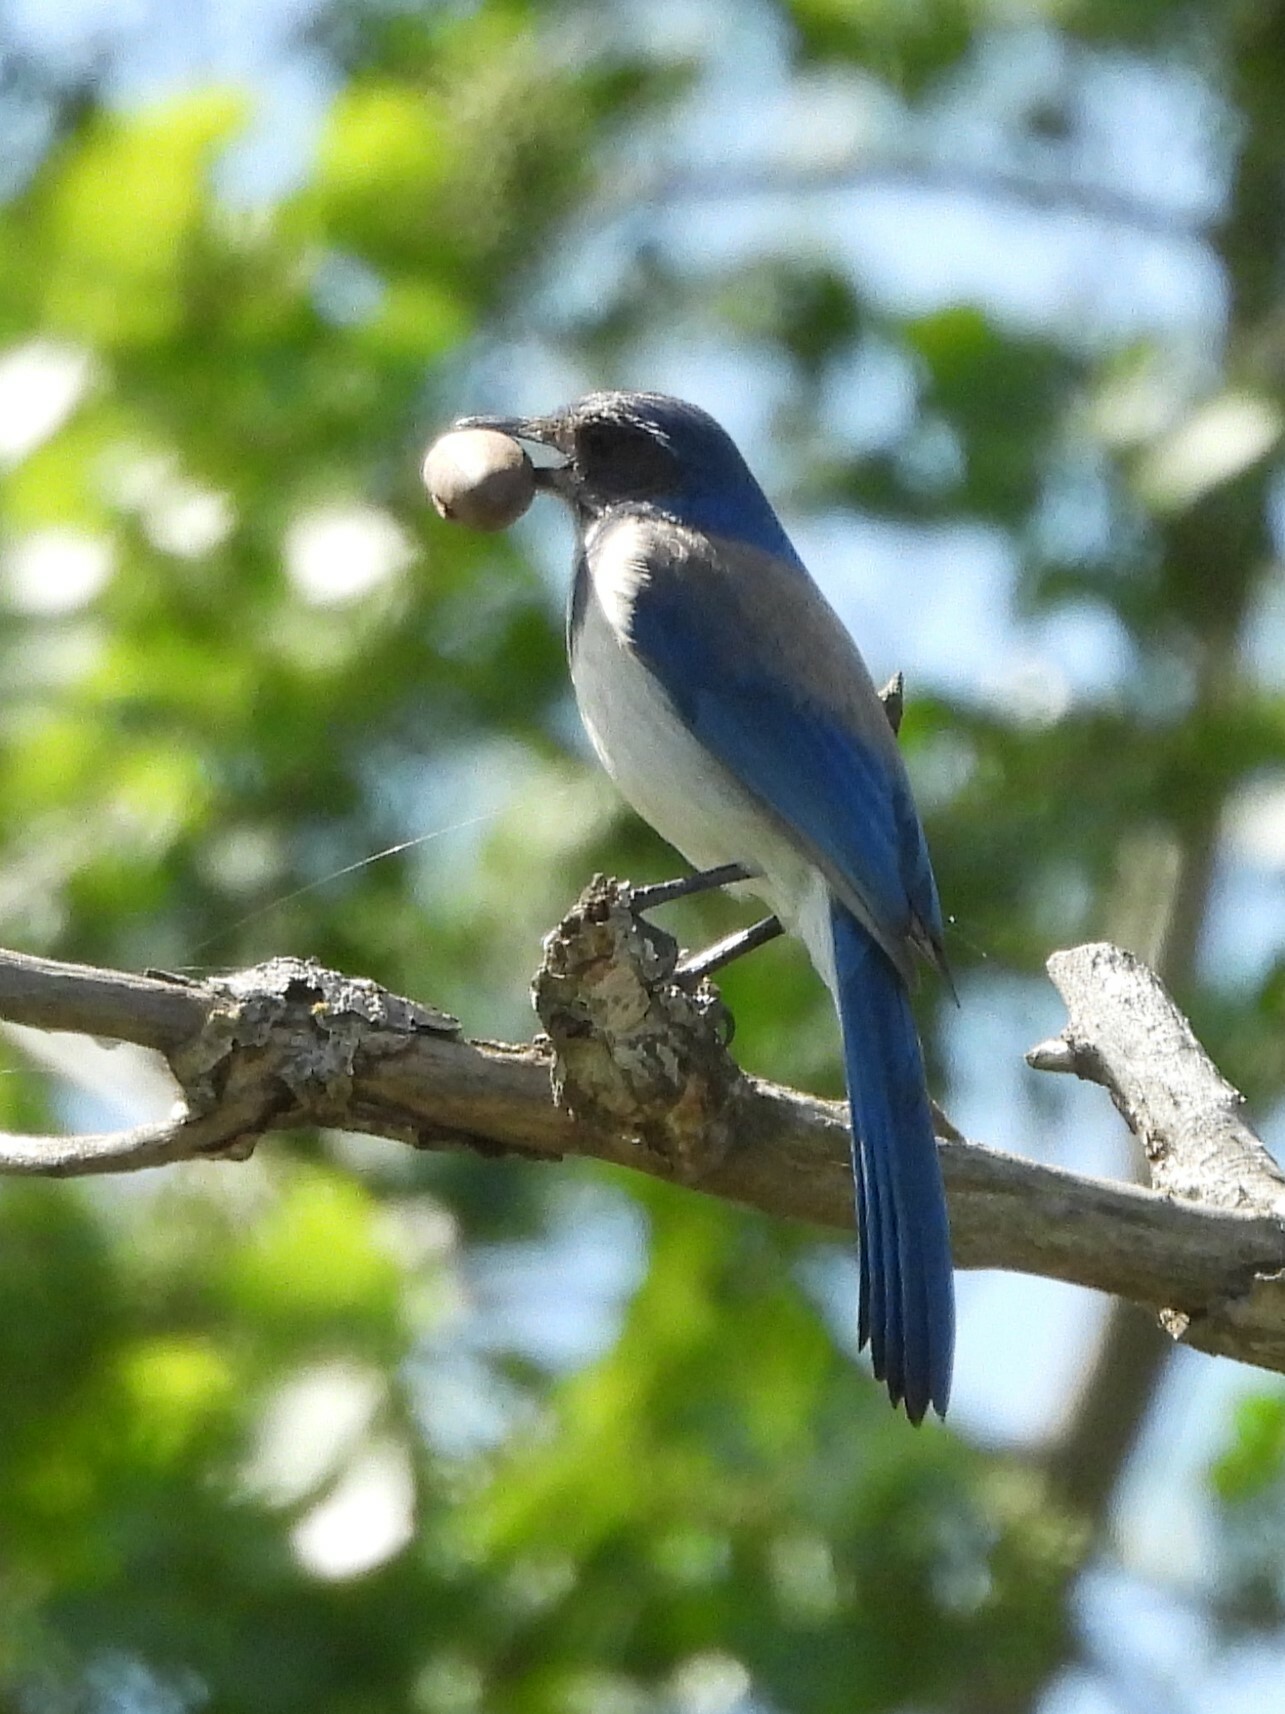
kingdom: Animalia
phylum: Chordata
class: Aves
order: Passeriformes
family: Corvidae
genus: Aphelocoma
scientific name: Aphelocoma californica
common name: California scrub-jay
